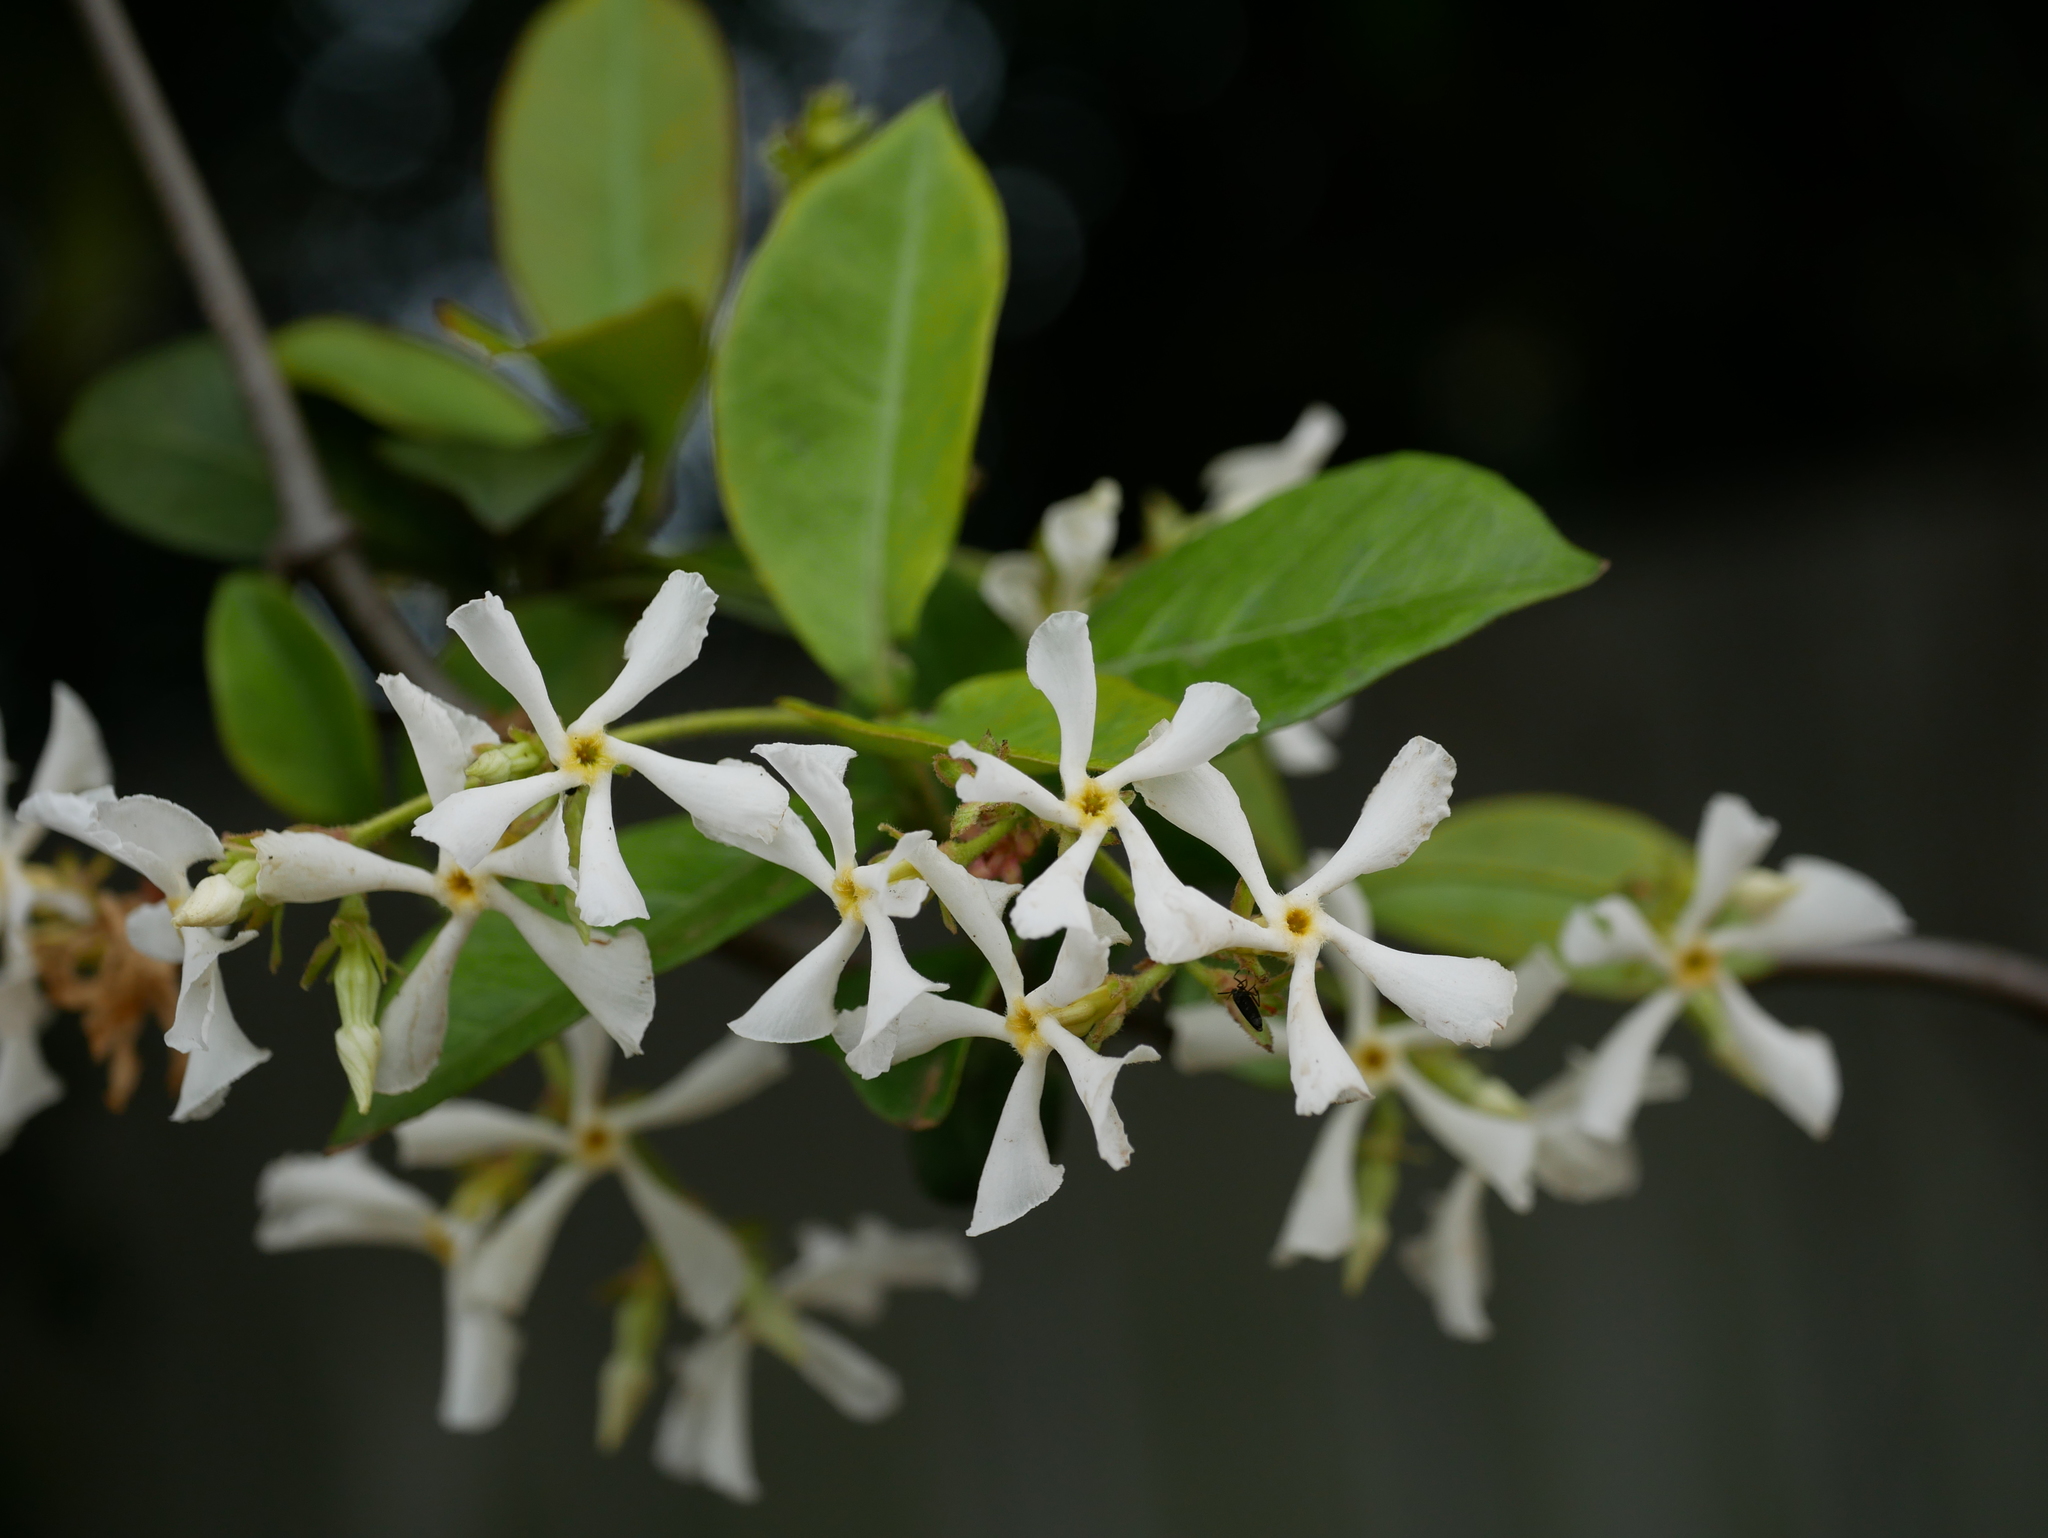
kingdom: Plantae
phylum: Tracheophyta
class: Magnoliopsida
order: Gentianales
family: Apocynaceae
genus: Trachelospermum
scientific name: Trachelospermum jasminoides
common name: Confederate jasmine
